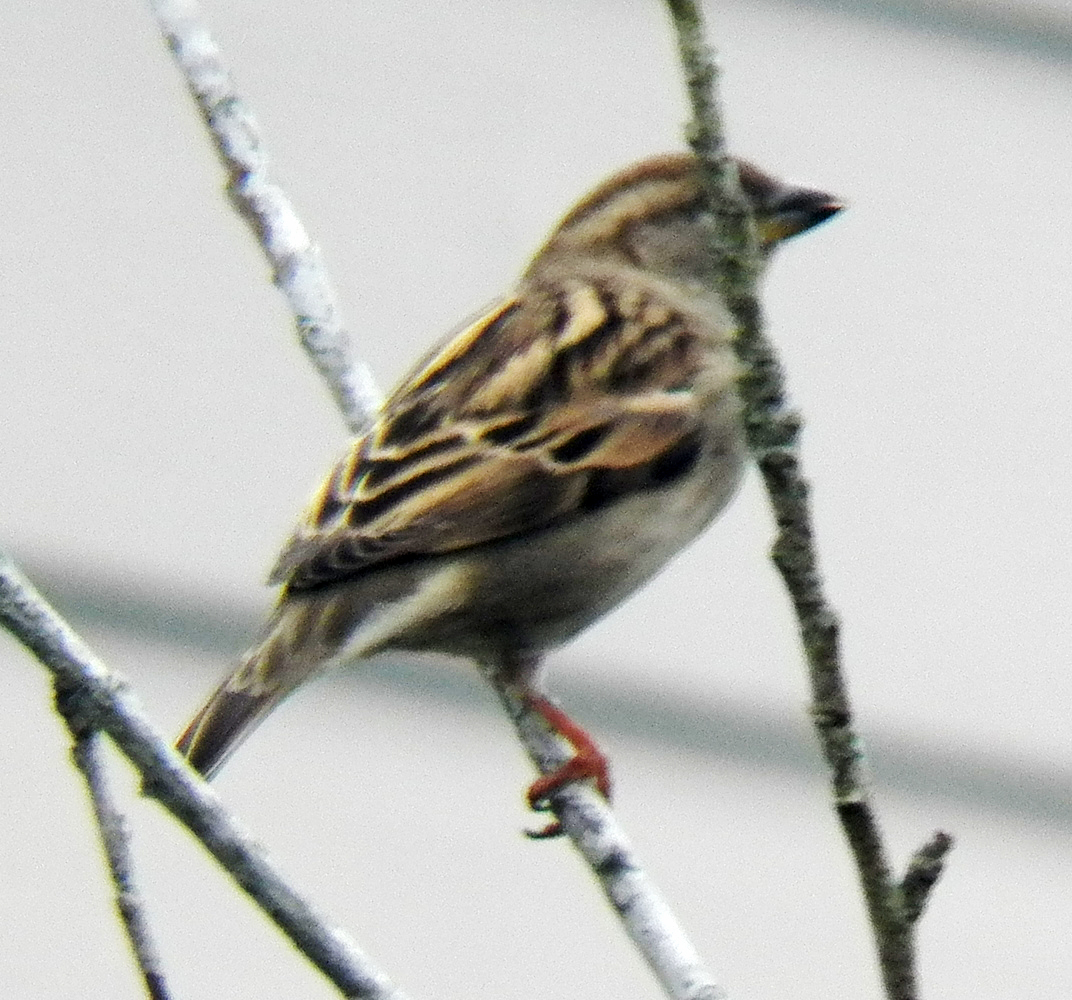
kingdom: Animalia
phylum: Chordata
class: Aves
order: Passeriformes
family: Passeridae
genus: Passer
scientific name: Passer domesticus
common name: House sparrow
